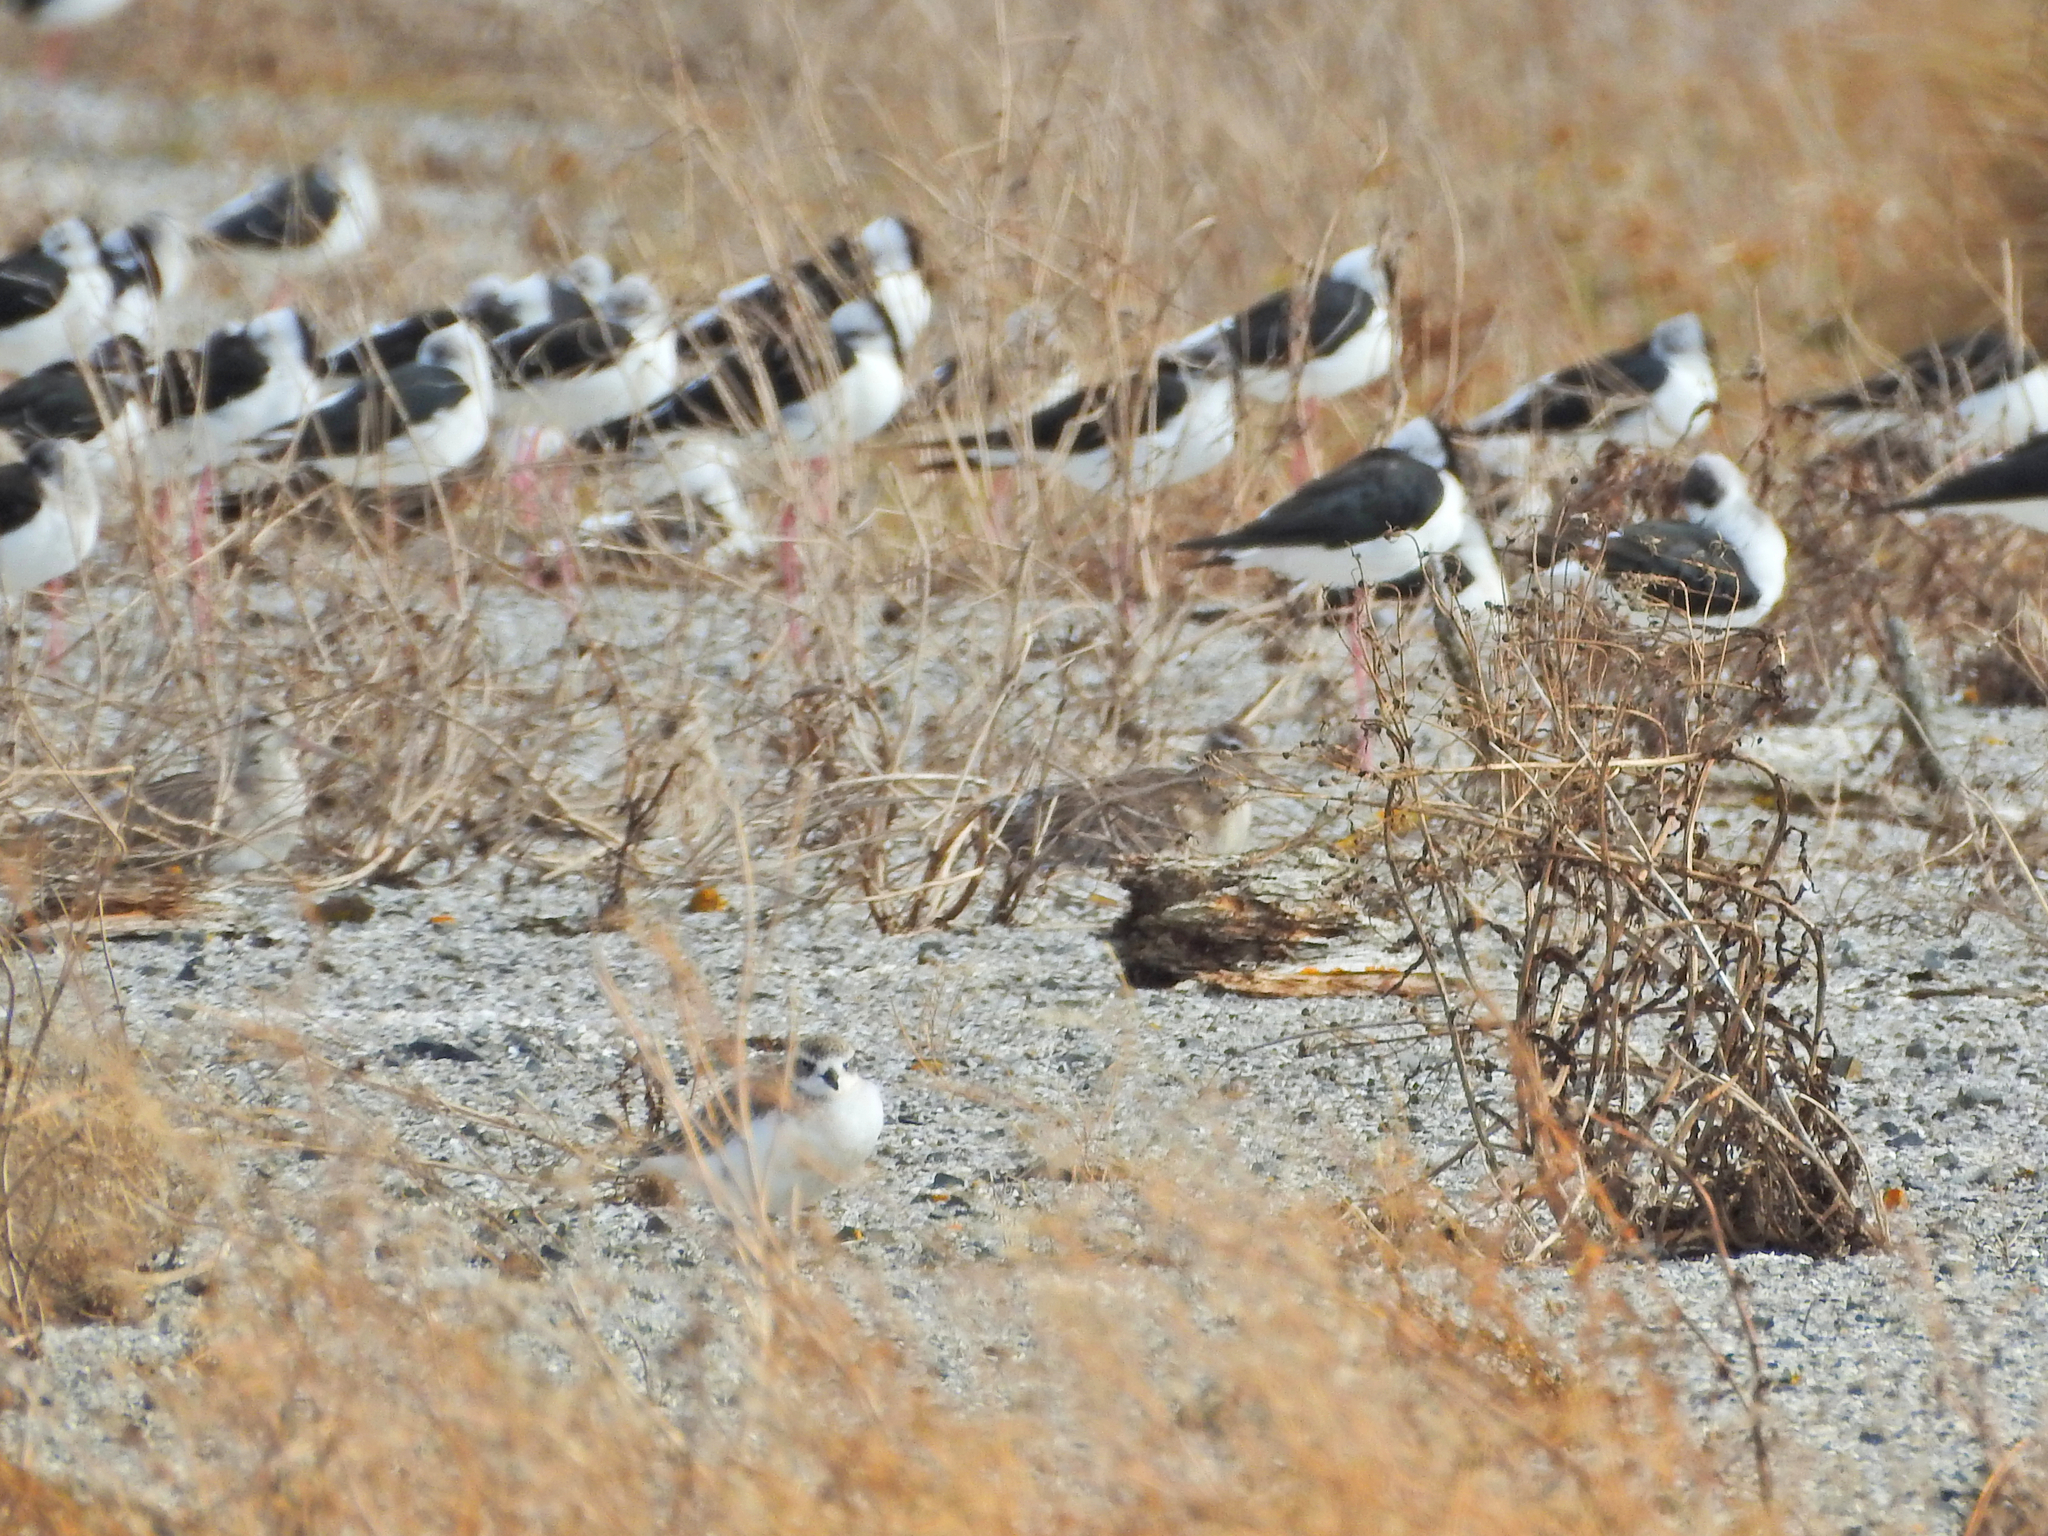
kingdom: Animalia
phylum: Chordata
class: Aves
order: Charadriiformes
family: Charadriidae
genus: Anarhynchus
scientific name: Anarhynchus
